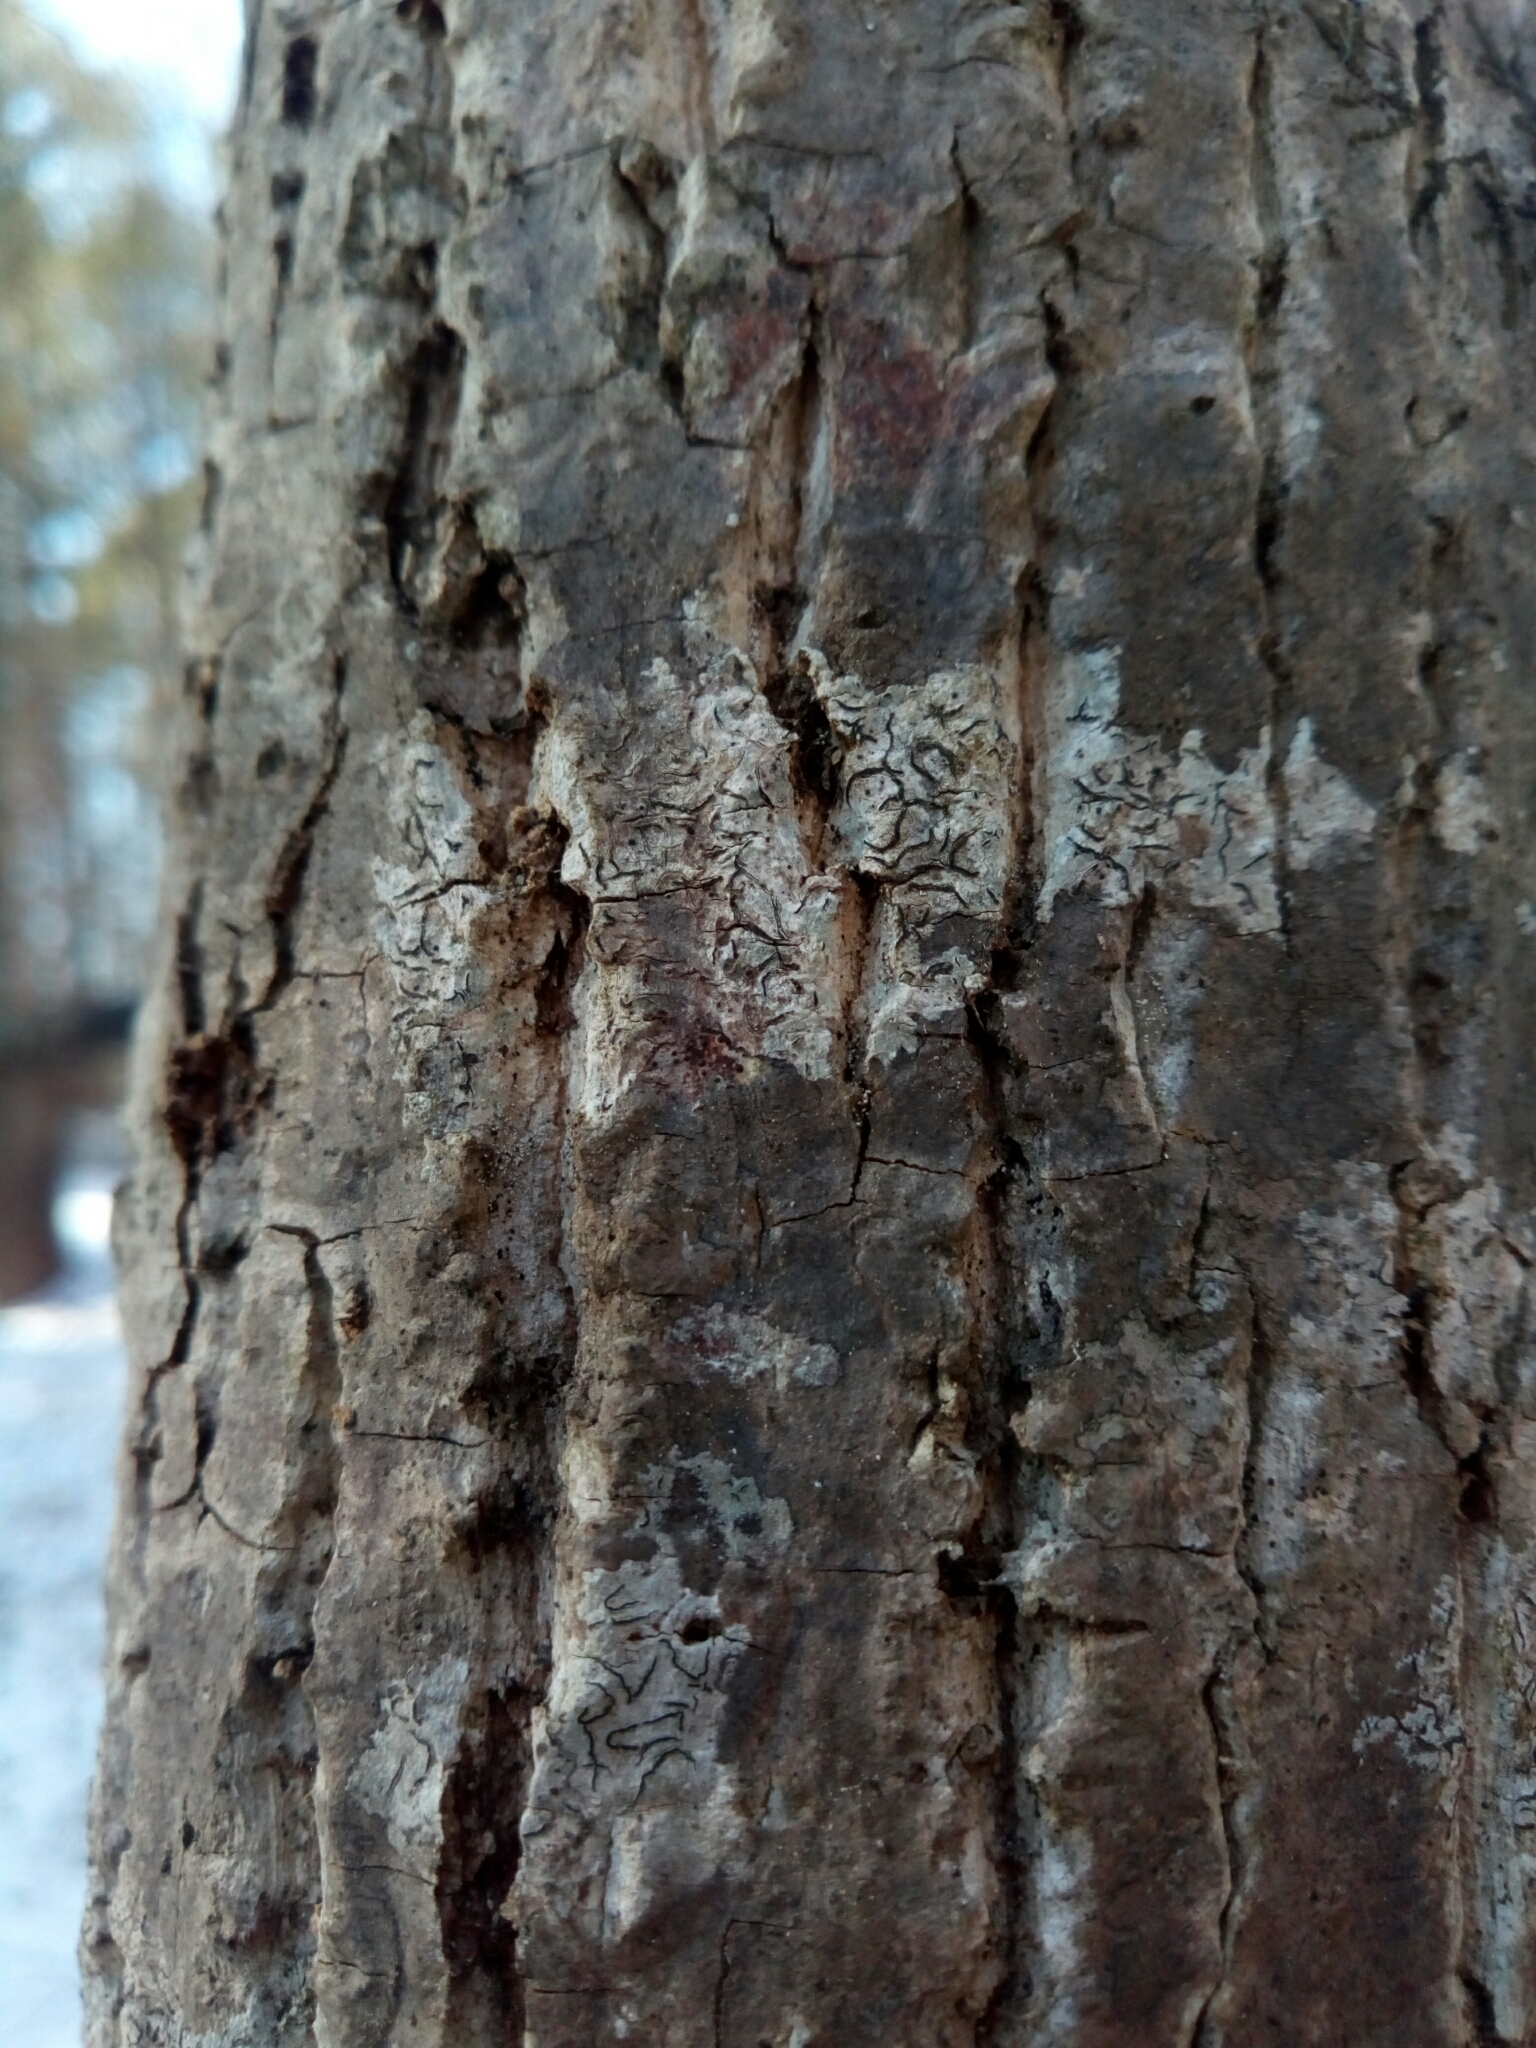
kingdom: Fungi
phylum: Ascomycota
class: Lecanoromycetes
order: Ostropales
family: Graphidaceae
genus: Graphis
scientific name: Graphis scripta
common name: Script lichen
